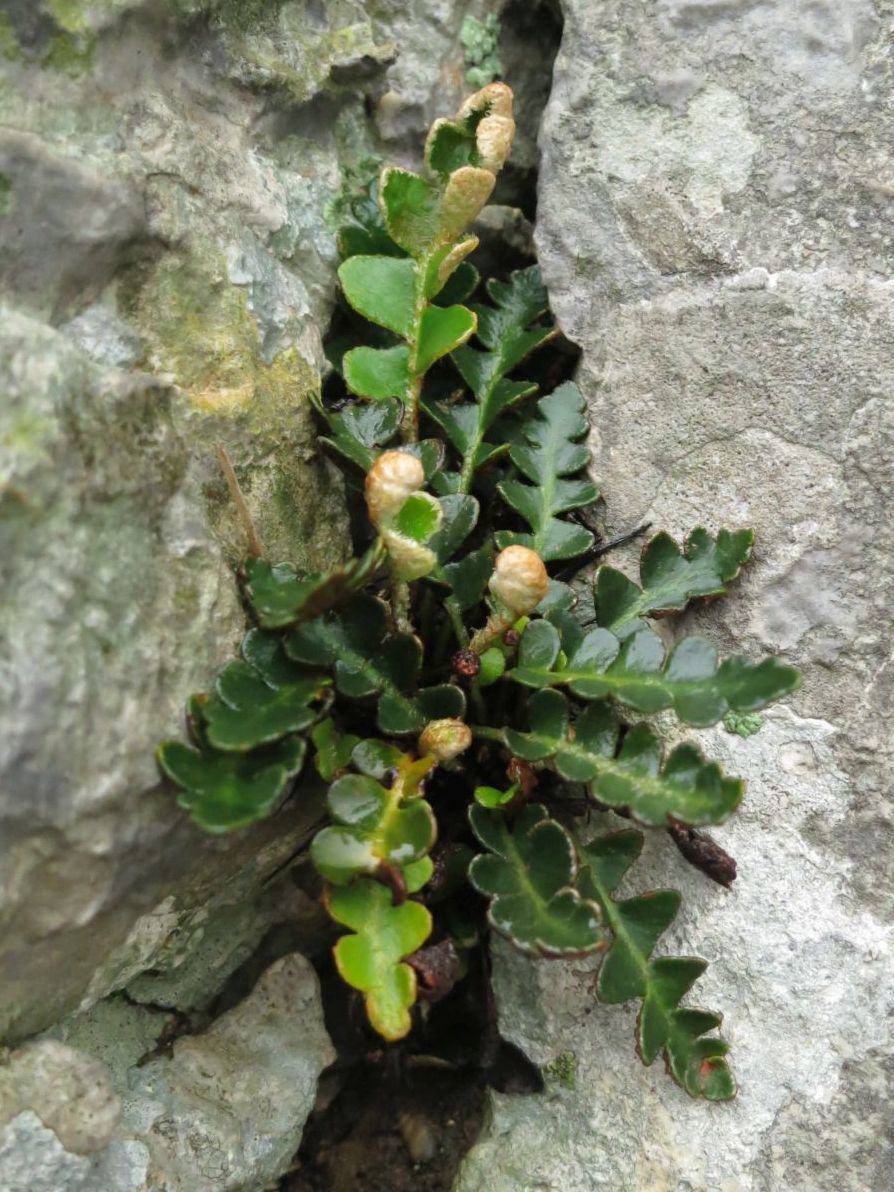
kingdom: Plantae
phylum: Tracheophyta
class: Polypodiopsida
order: Polypodiales
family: Aspleniaceae
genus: Asplenium
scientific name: Asplenium ceterach
